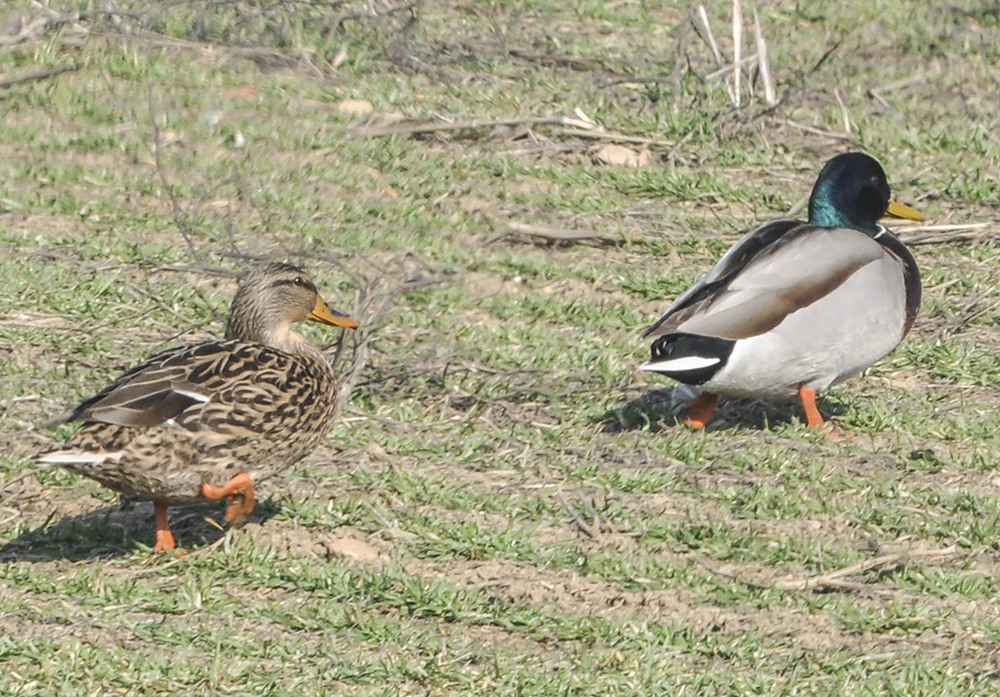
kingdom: Animalia
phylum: Chordata
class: Aves
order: Anseriformes
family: Anatidae
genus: Anas
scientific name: Anas platyrhynchos
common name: Mallard
